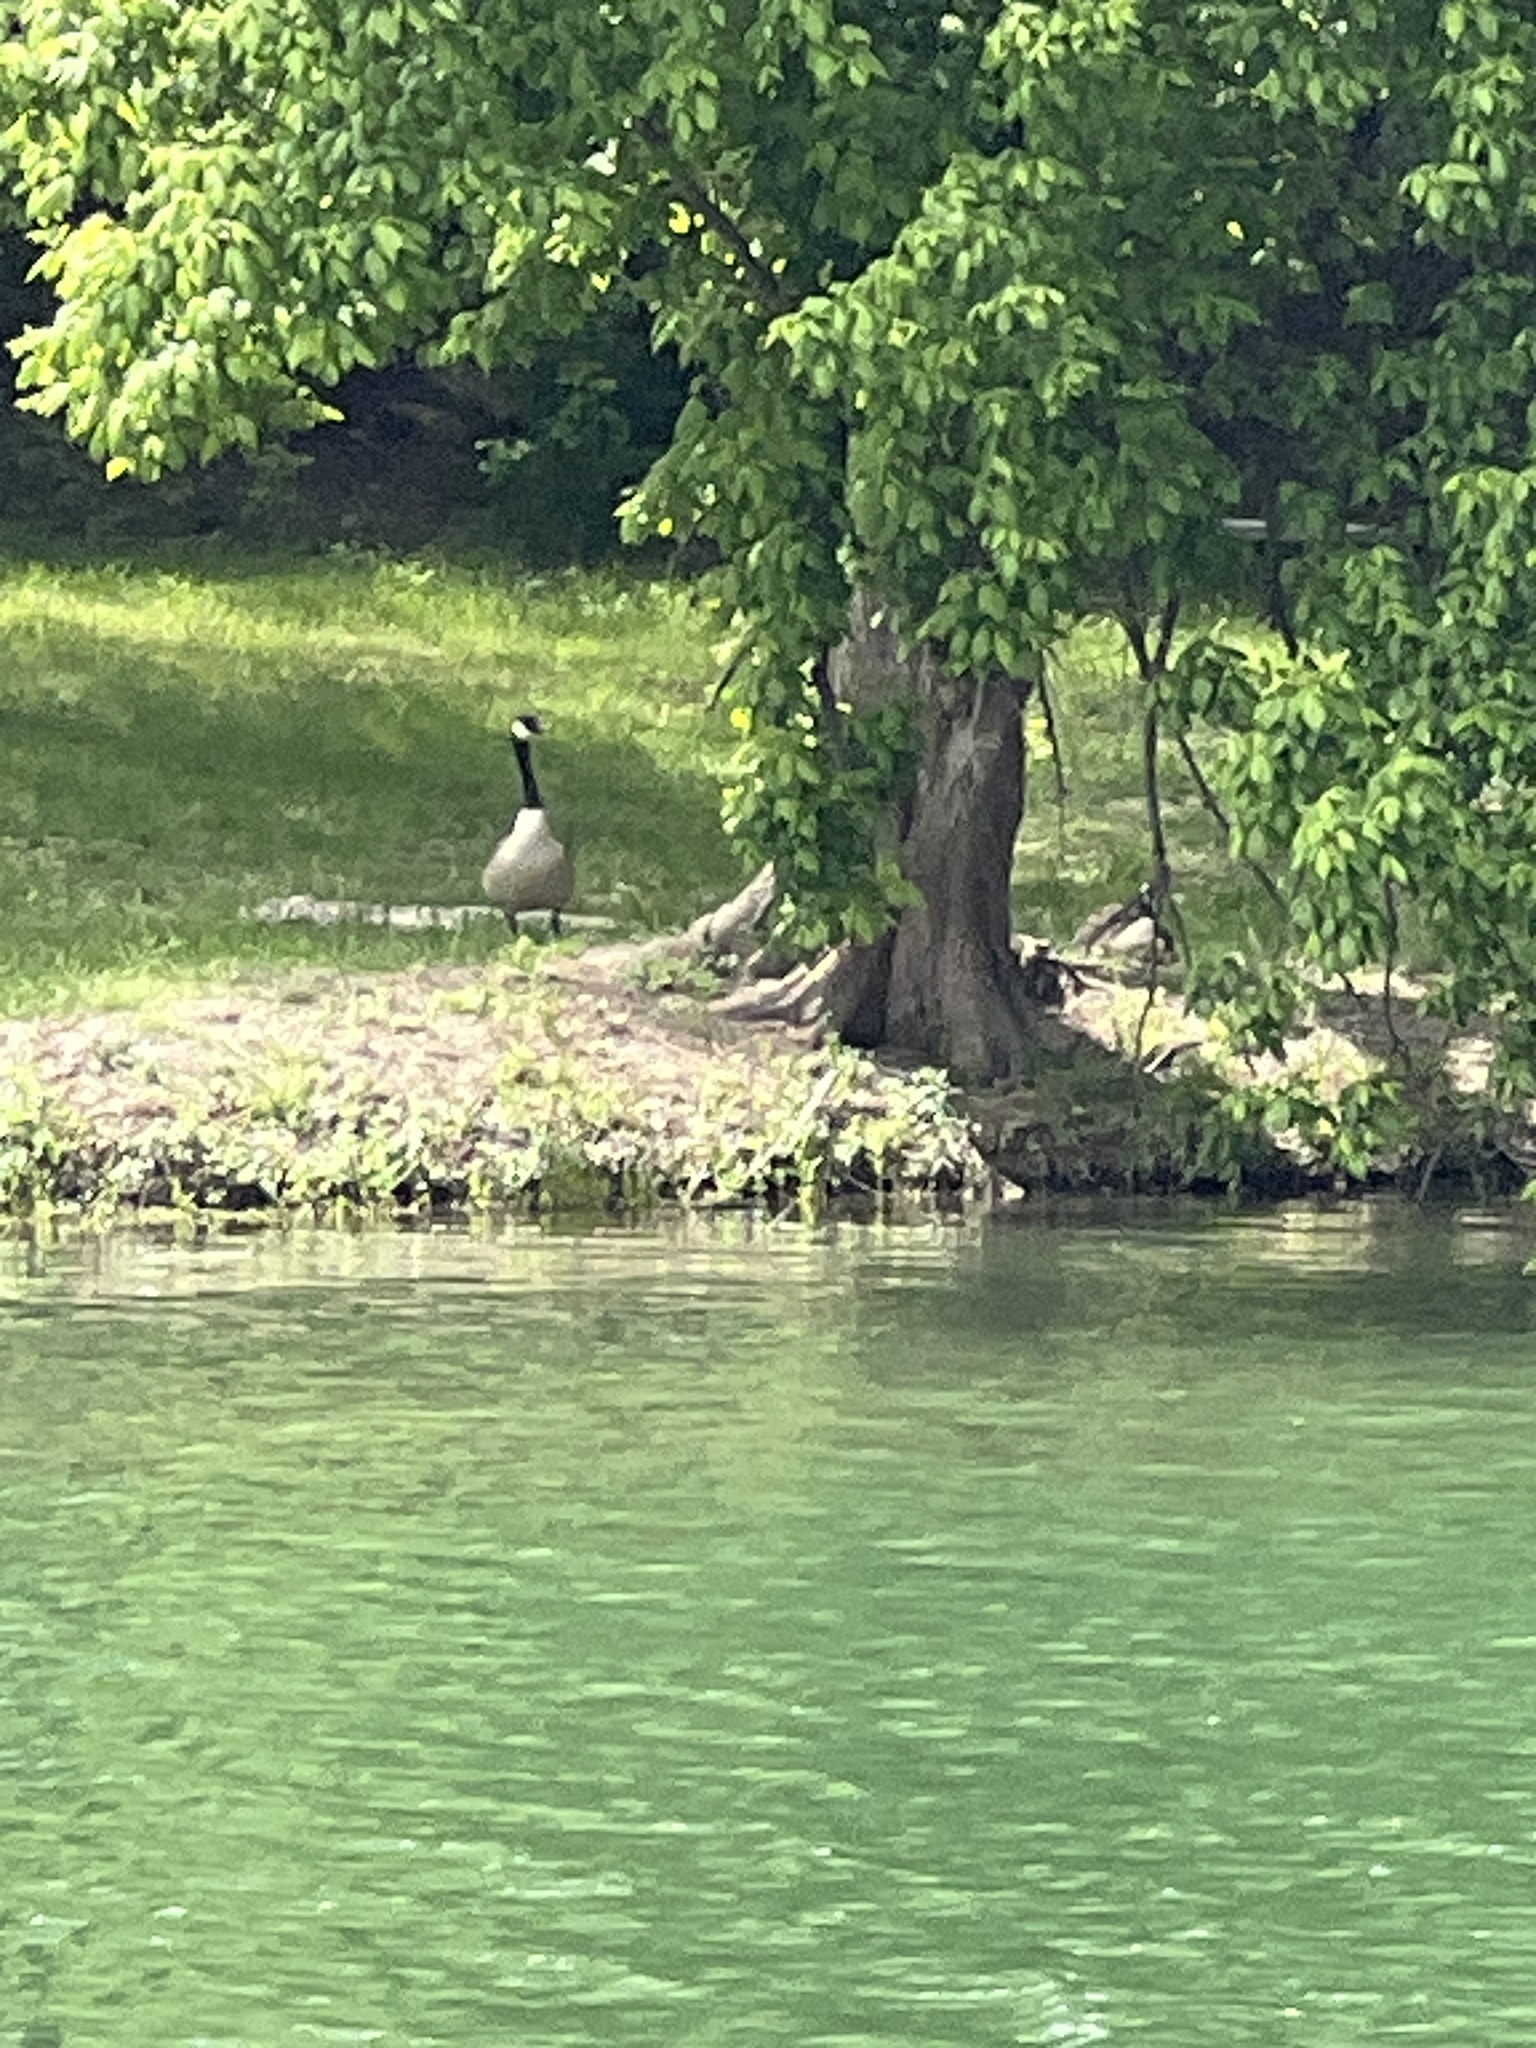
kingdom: Animalia
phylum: Chordata
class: Aves
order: Anseriformes
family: Anatidae
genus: Branta
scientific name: Branta canadensis
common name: Canada goose
